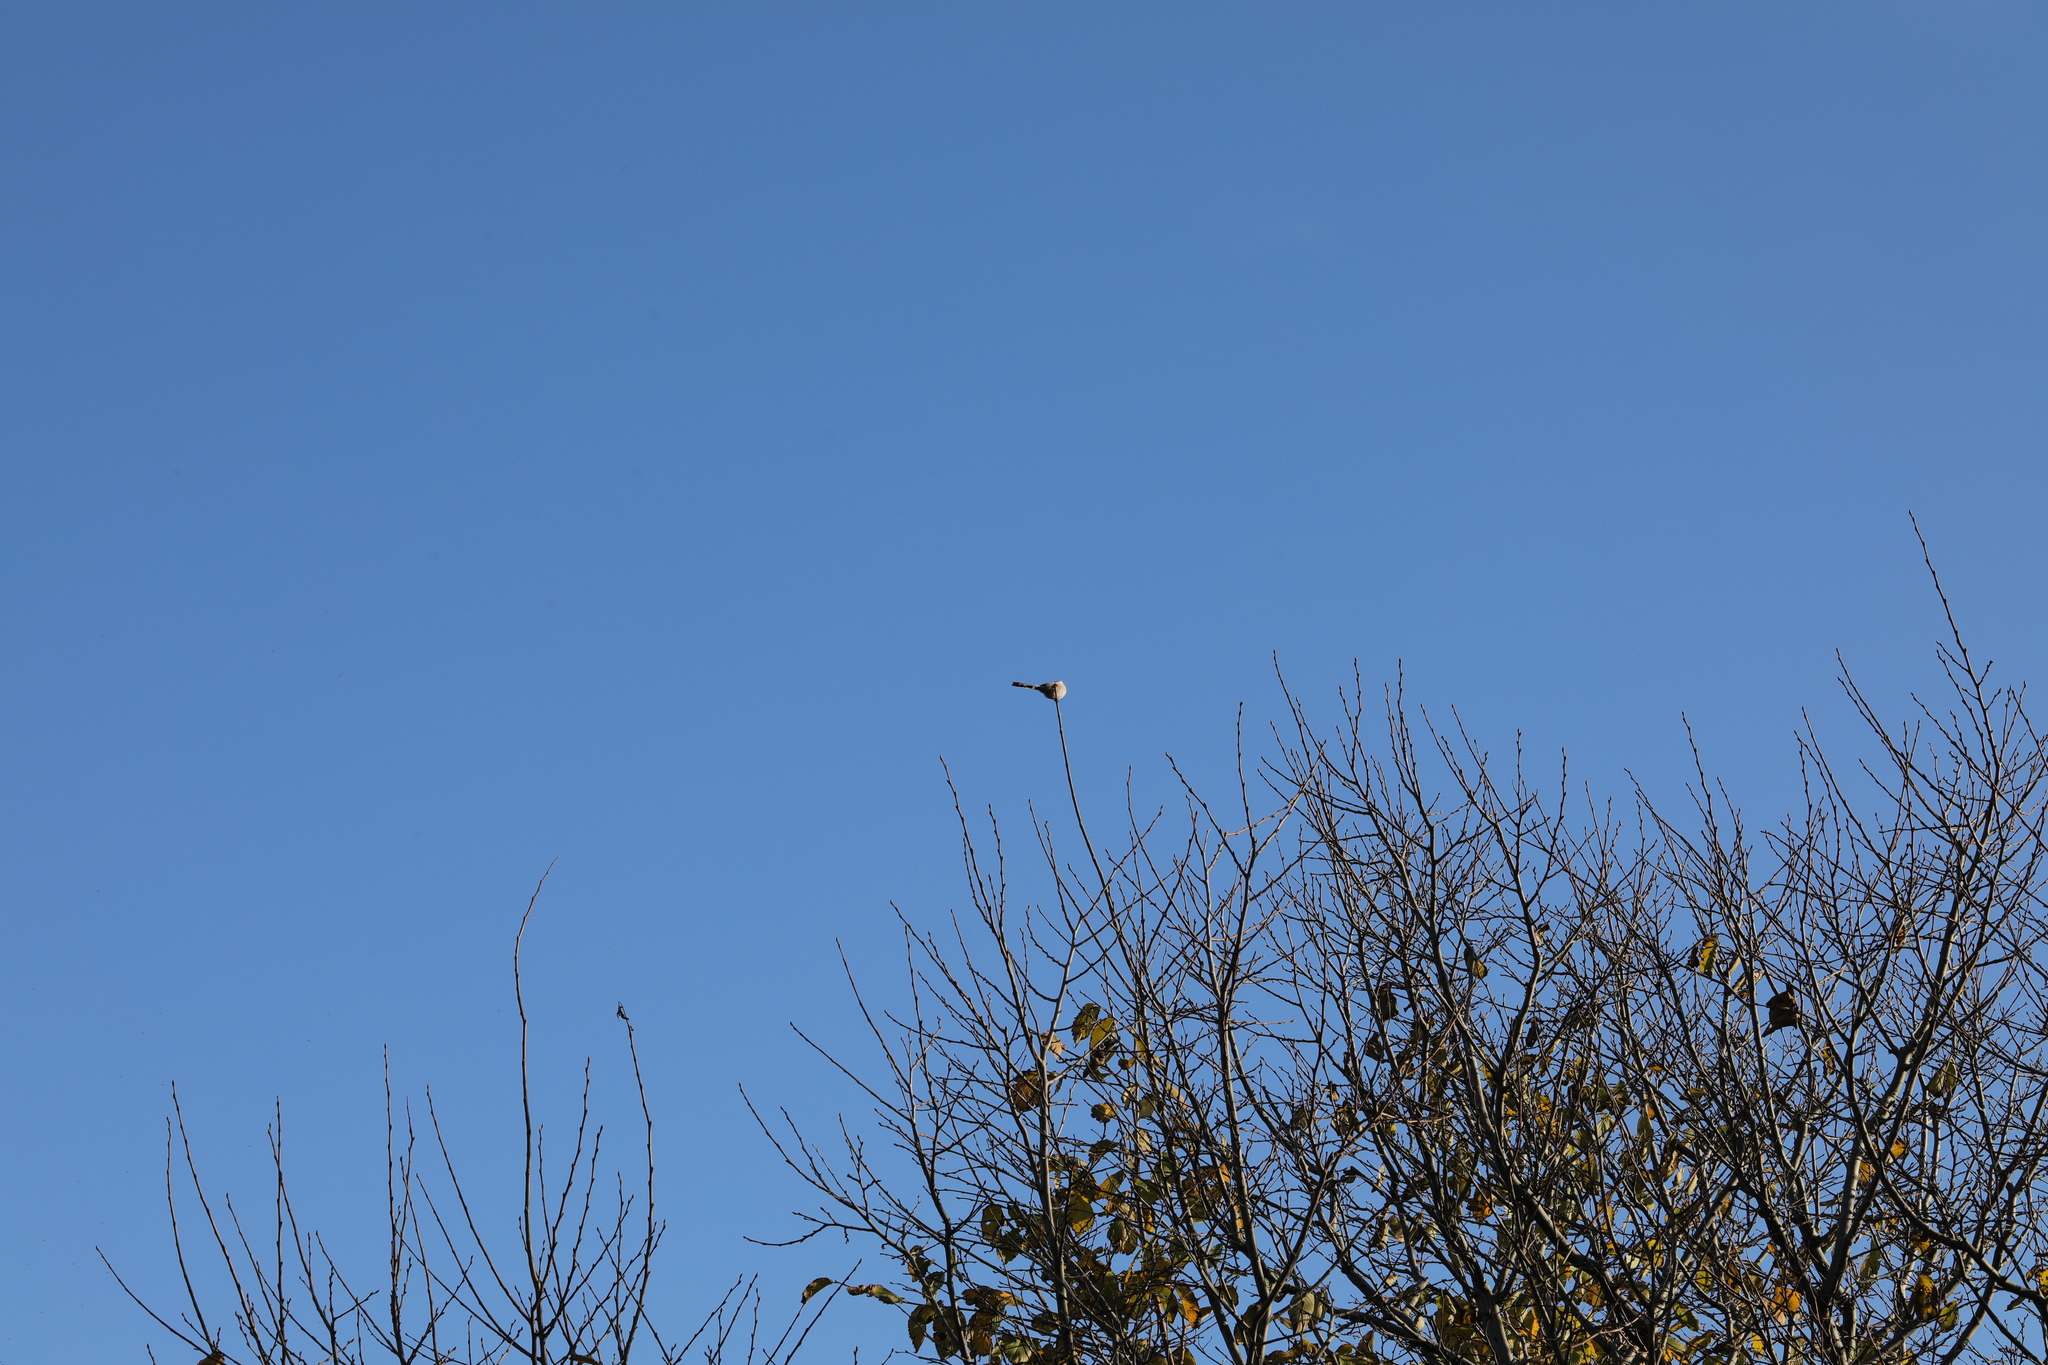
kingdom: Animalia
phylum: Chordata
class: Aves
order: Passeriformes
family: Aegithalidae
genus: Aegithalos
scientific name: Aegithalos caudatus
